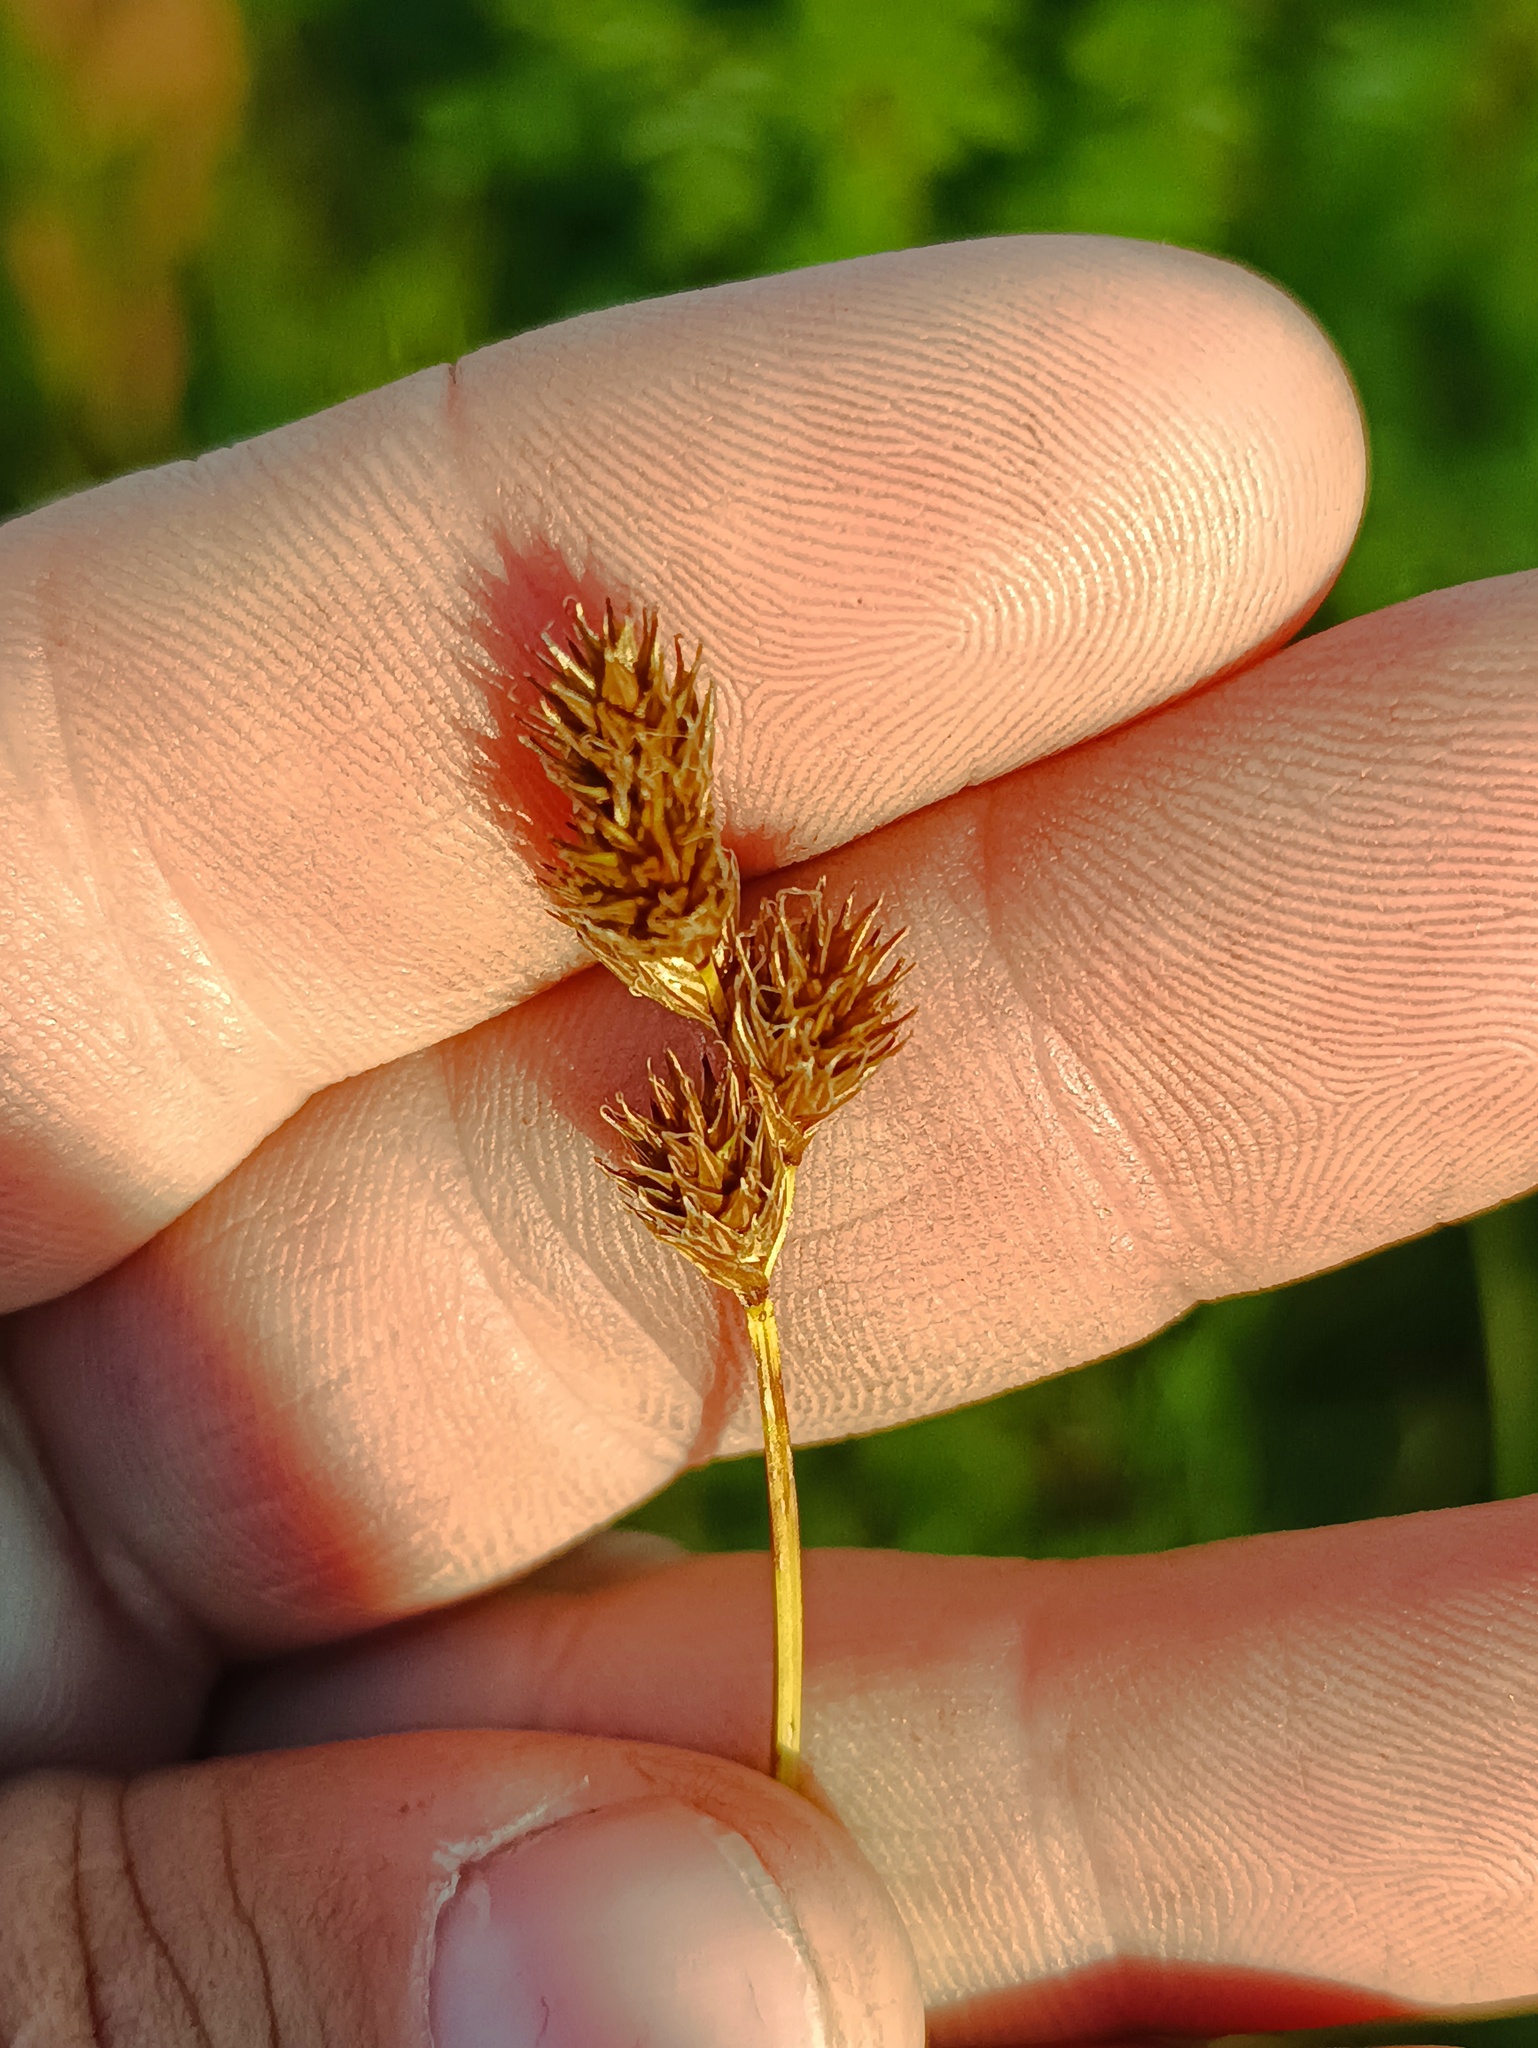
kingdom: Plantae
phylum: Tracheophyta
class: Liliopsida
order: Poales
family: Cyperaceae
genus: Carex
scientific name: Carex leporina
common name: Oval sedge
